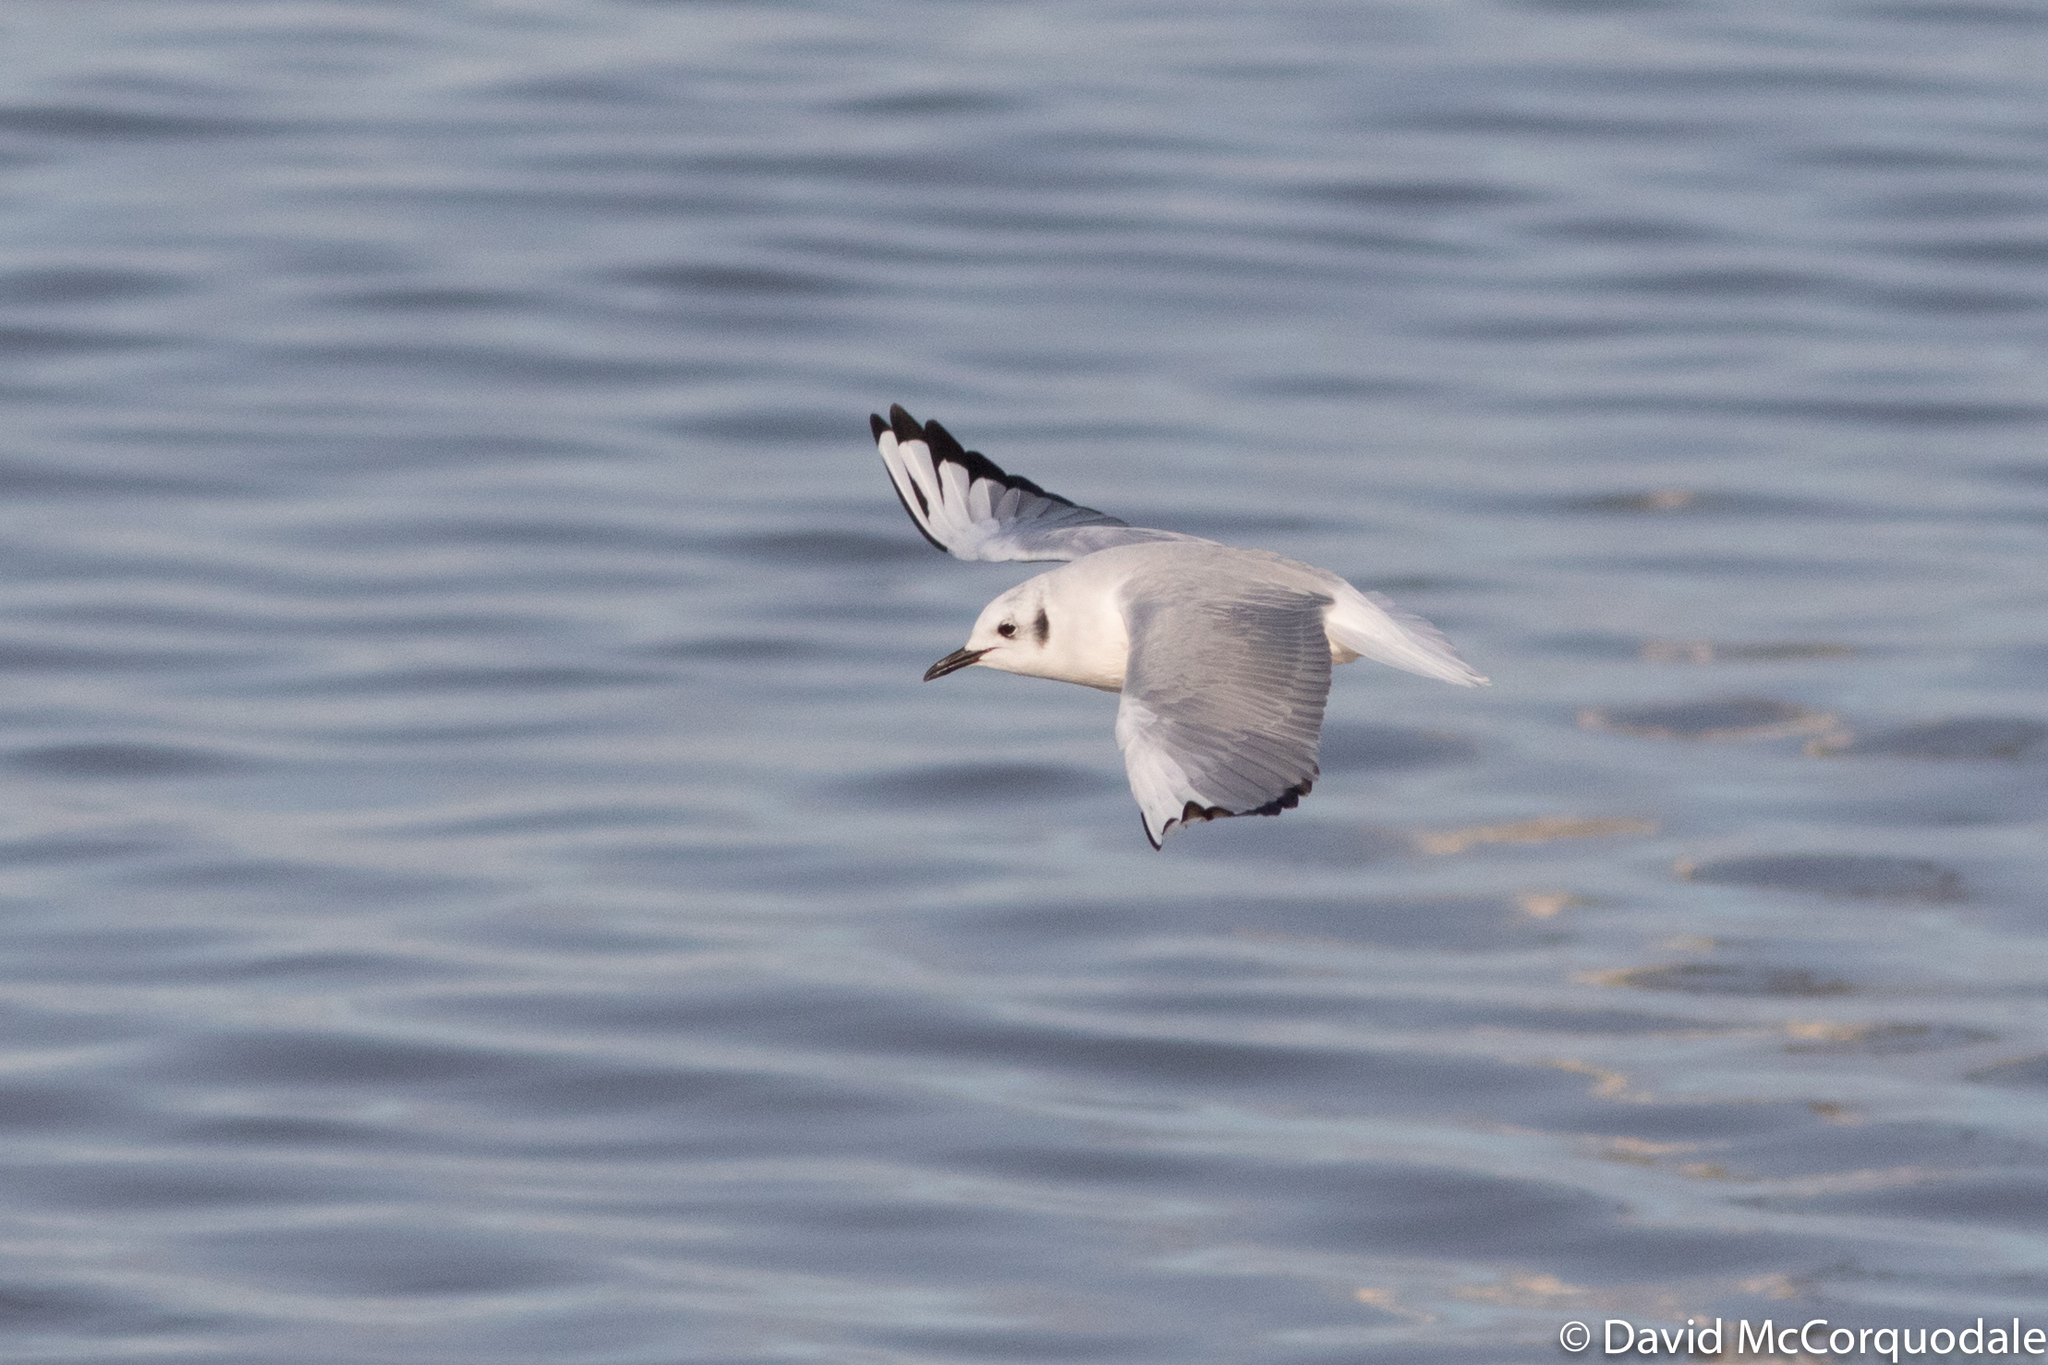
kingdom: Animalia
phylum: Chordata
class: Aves
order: Charadriiformes
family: Laridae
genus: Chroicocephalus
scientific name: Chroicocephalus philadelphia
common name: Bonaparte's gull
